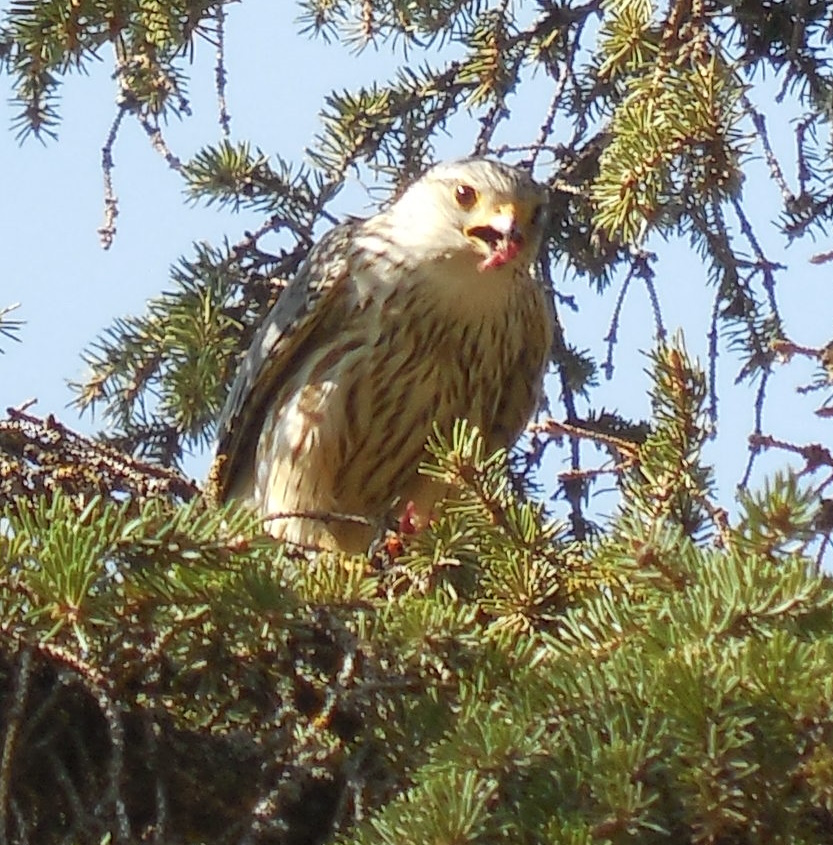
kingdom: Animalia
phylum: Chordata
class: Aves
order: Falconiformes
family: Falconidae
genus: Falco
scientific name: Falco columbarius
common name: Merlin
